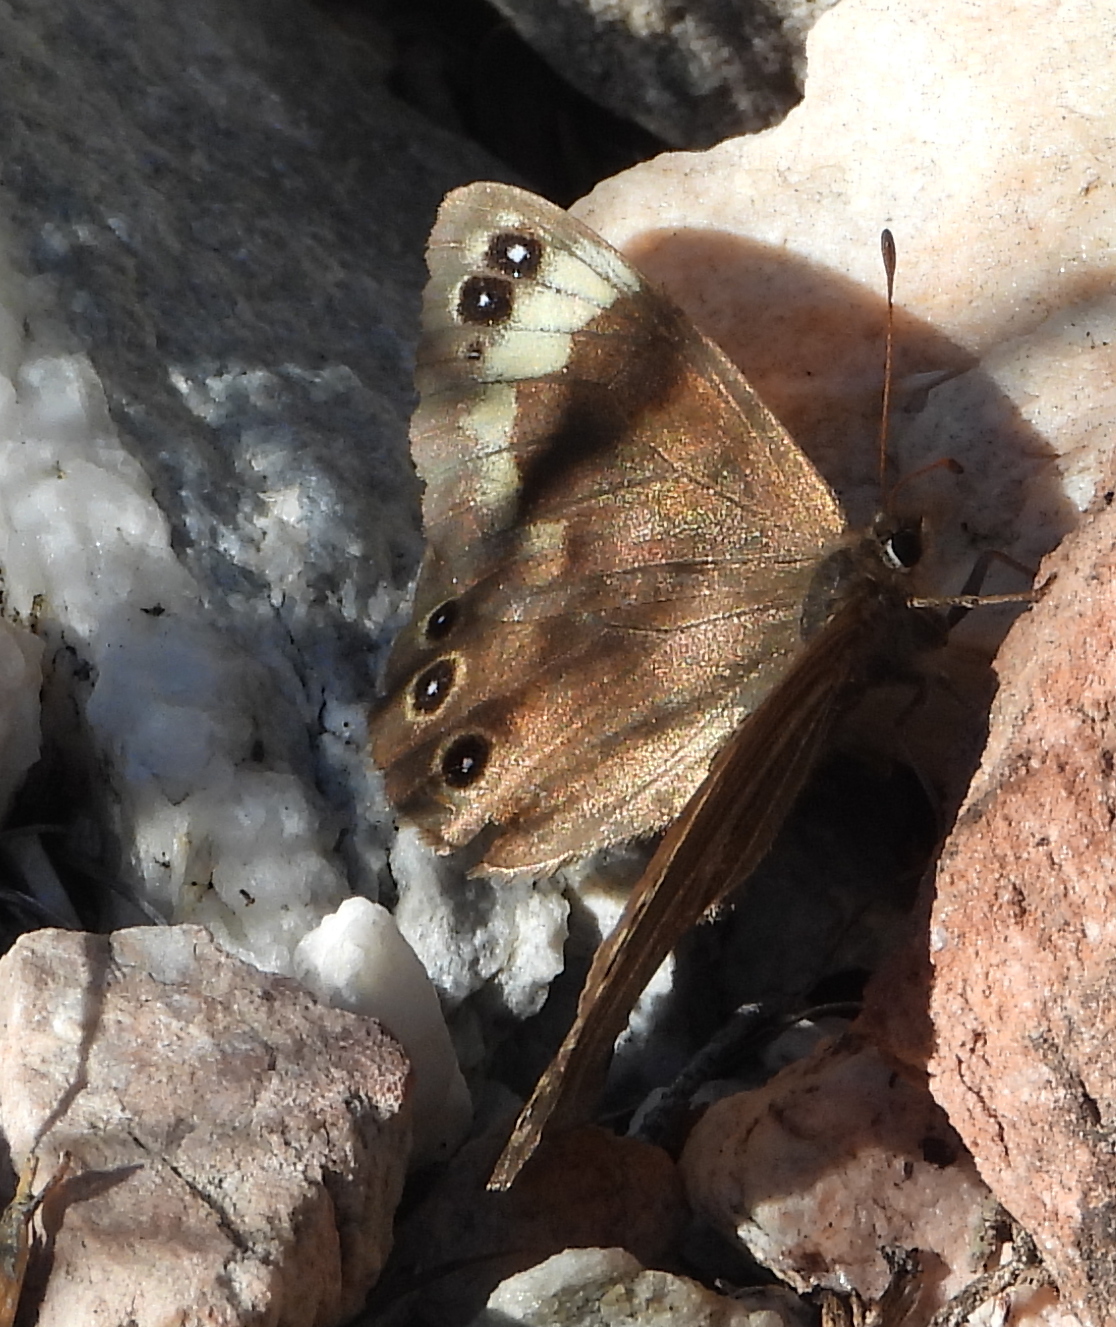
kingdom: Animalia
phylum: Arthropoda
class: Insecta
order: Lepidoptera
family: Nymphalidae
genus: Dira
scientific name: Dira clytus
